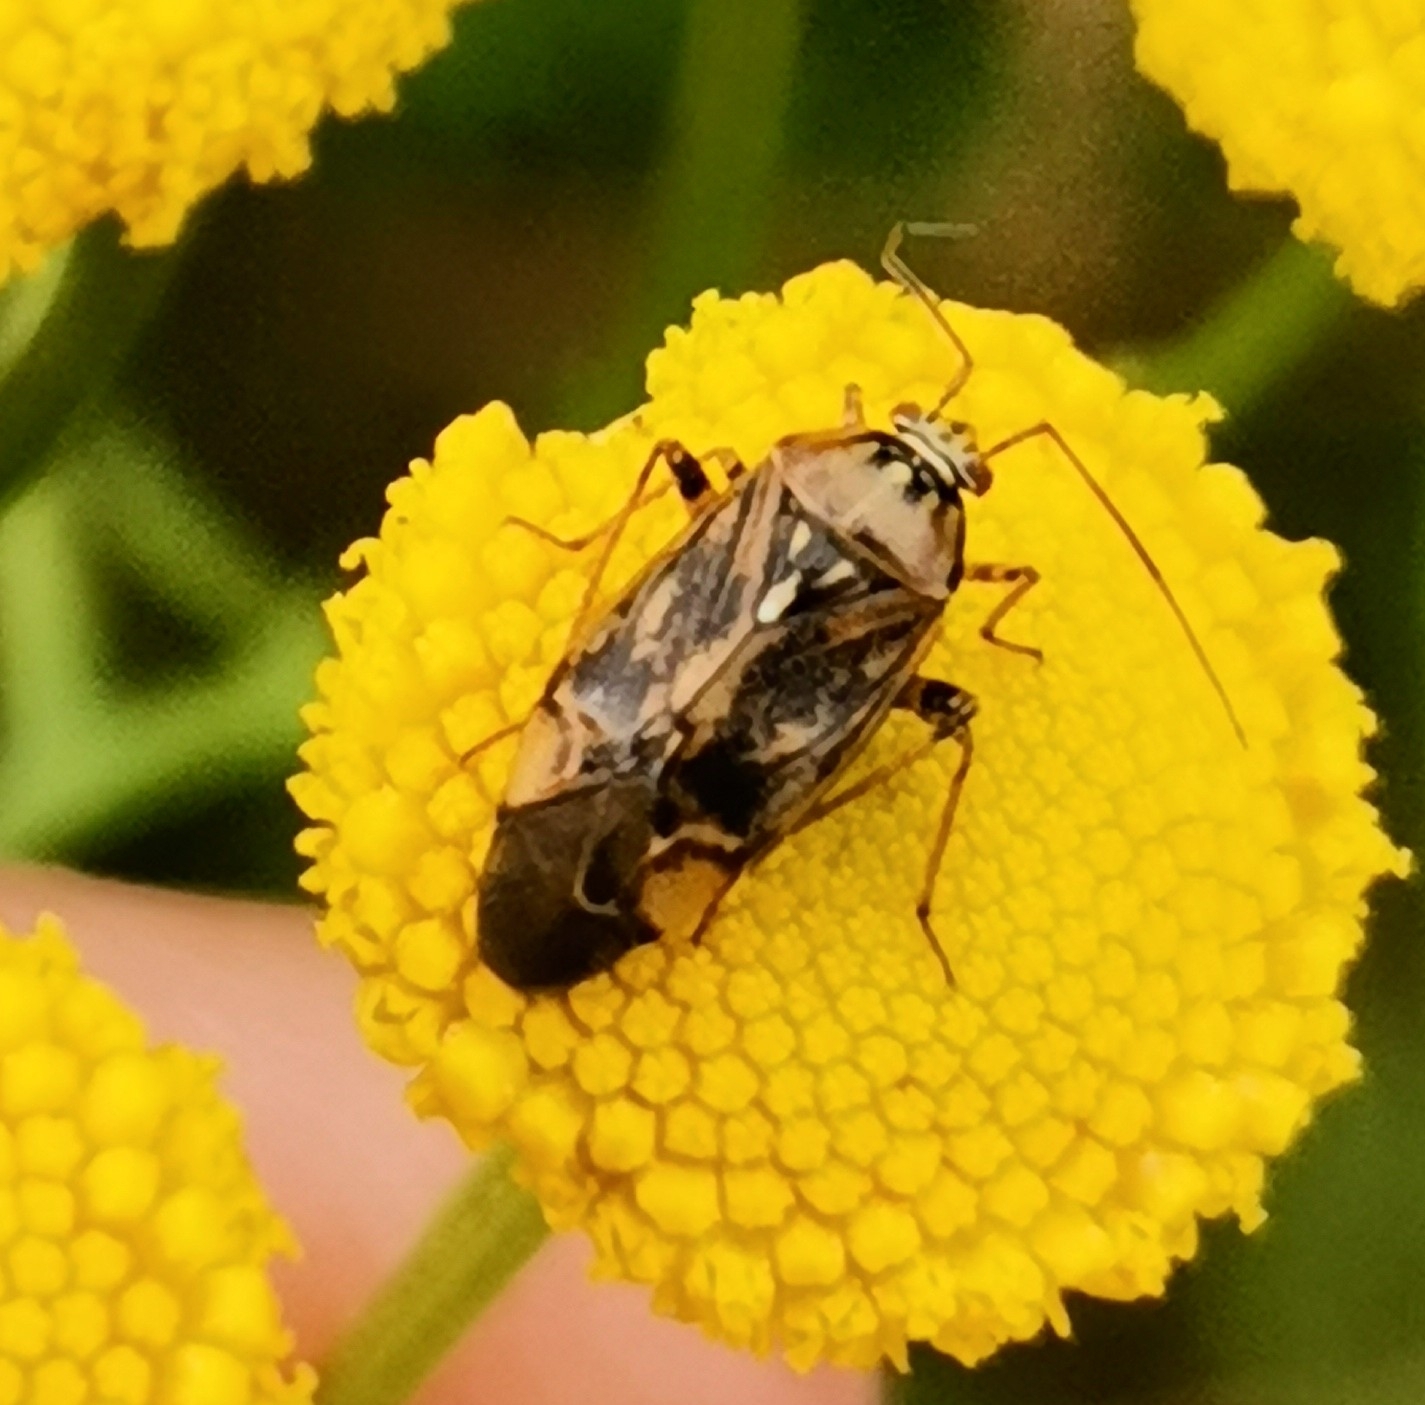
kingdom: Animalia
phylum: Arthropoda
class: Insecta
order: Hemiptera
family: Miridae
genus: Lygus
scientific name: Lygus rugulipennis
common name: European tarnished plant bug
